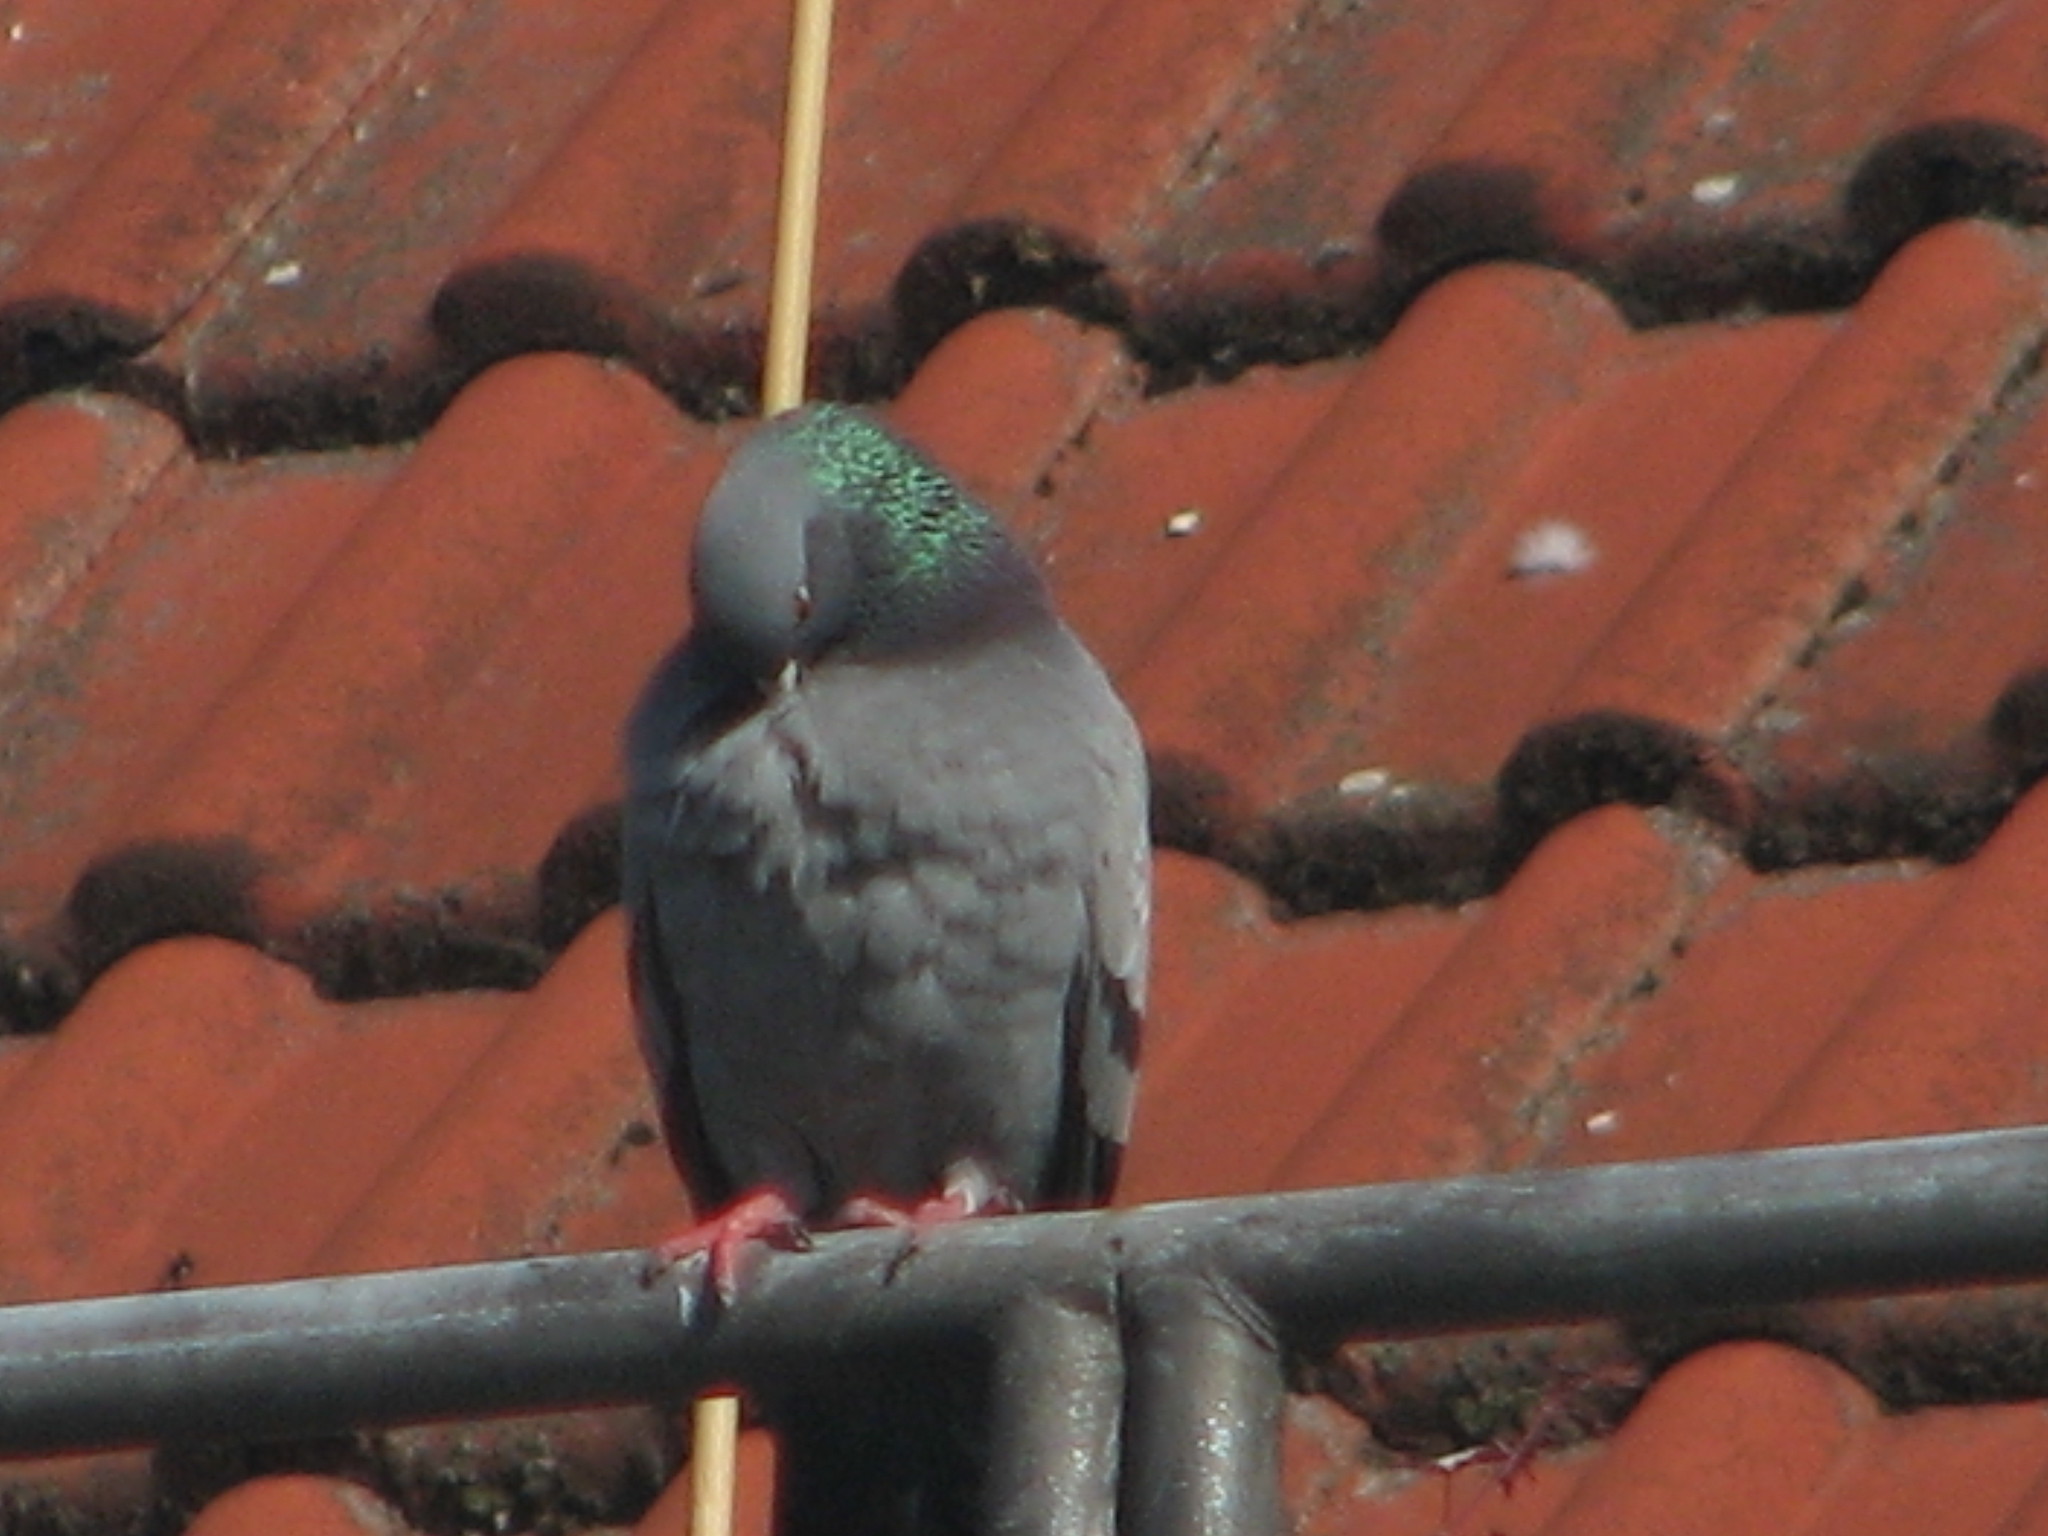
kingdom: Animalia
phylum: Chordata
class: Aves
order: Columbiformes
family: Columbidae
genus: Columba
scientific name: Columba livia
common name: Rock pigeon
